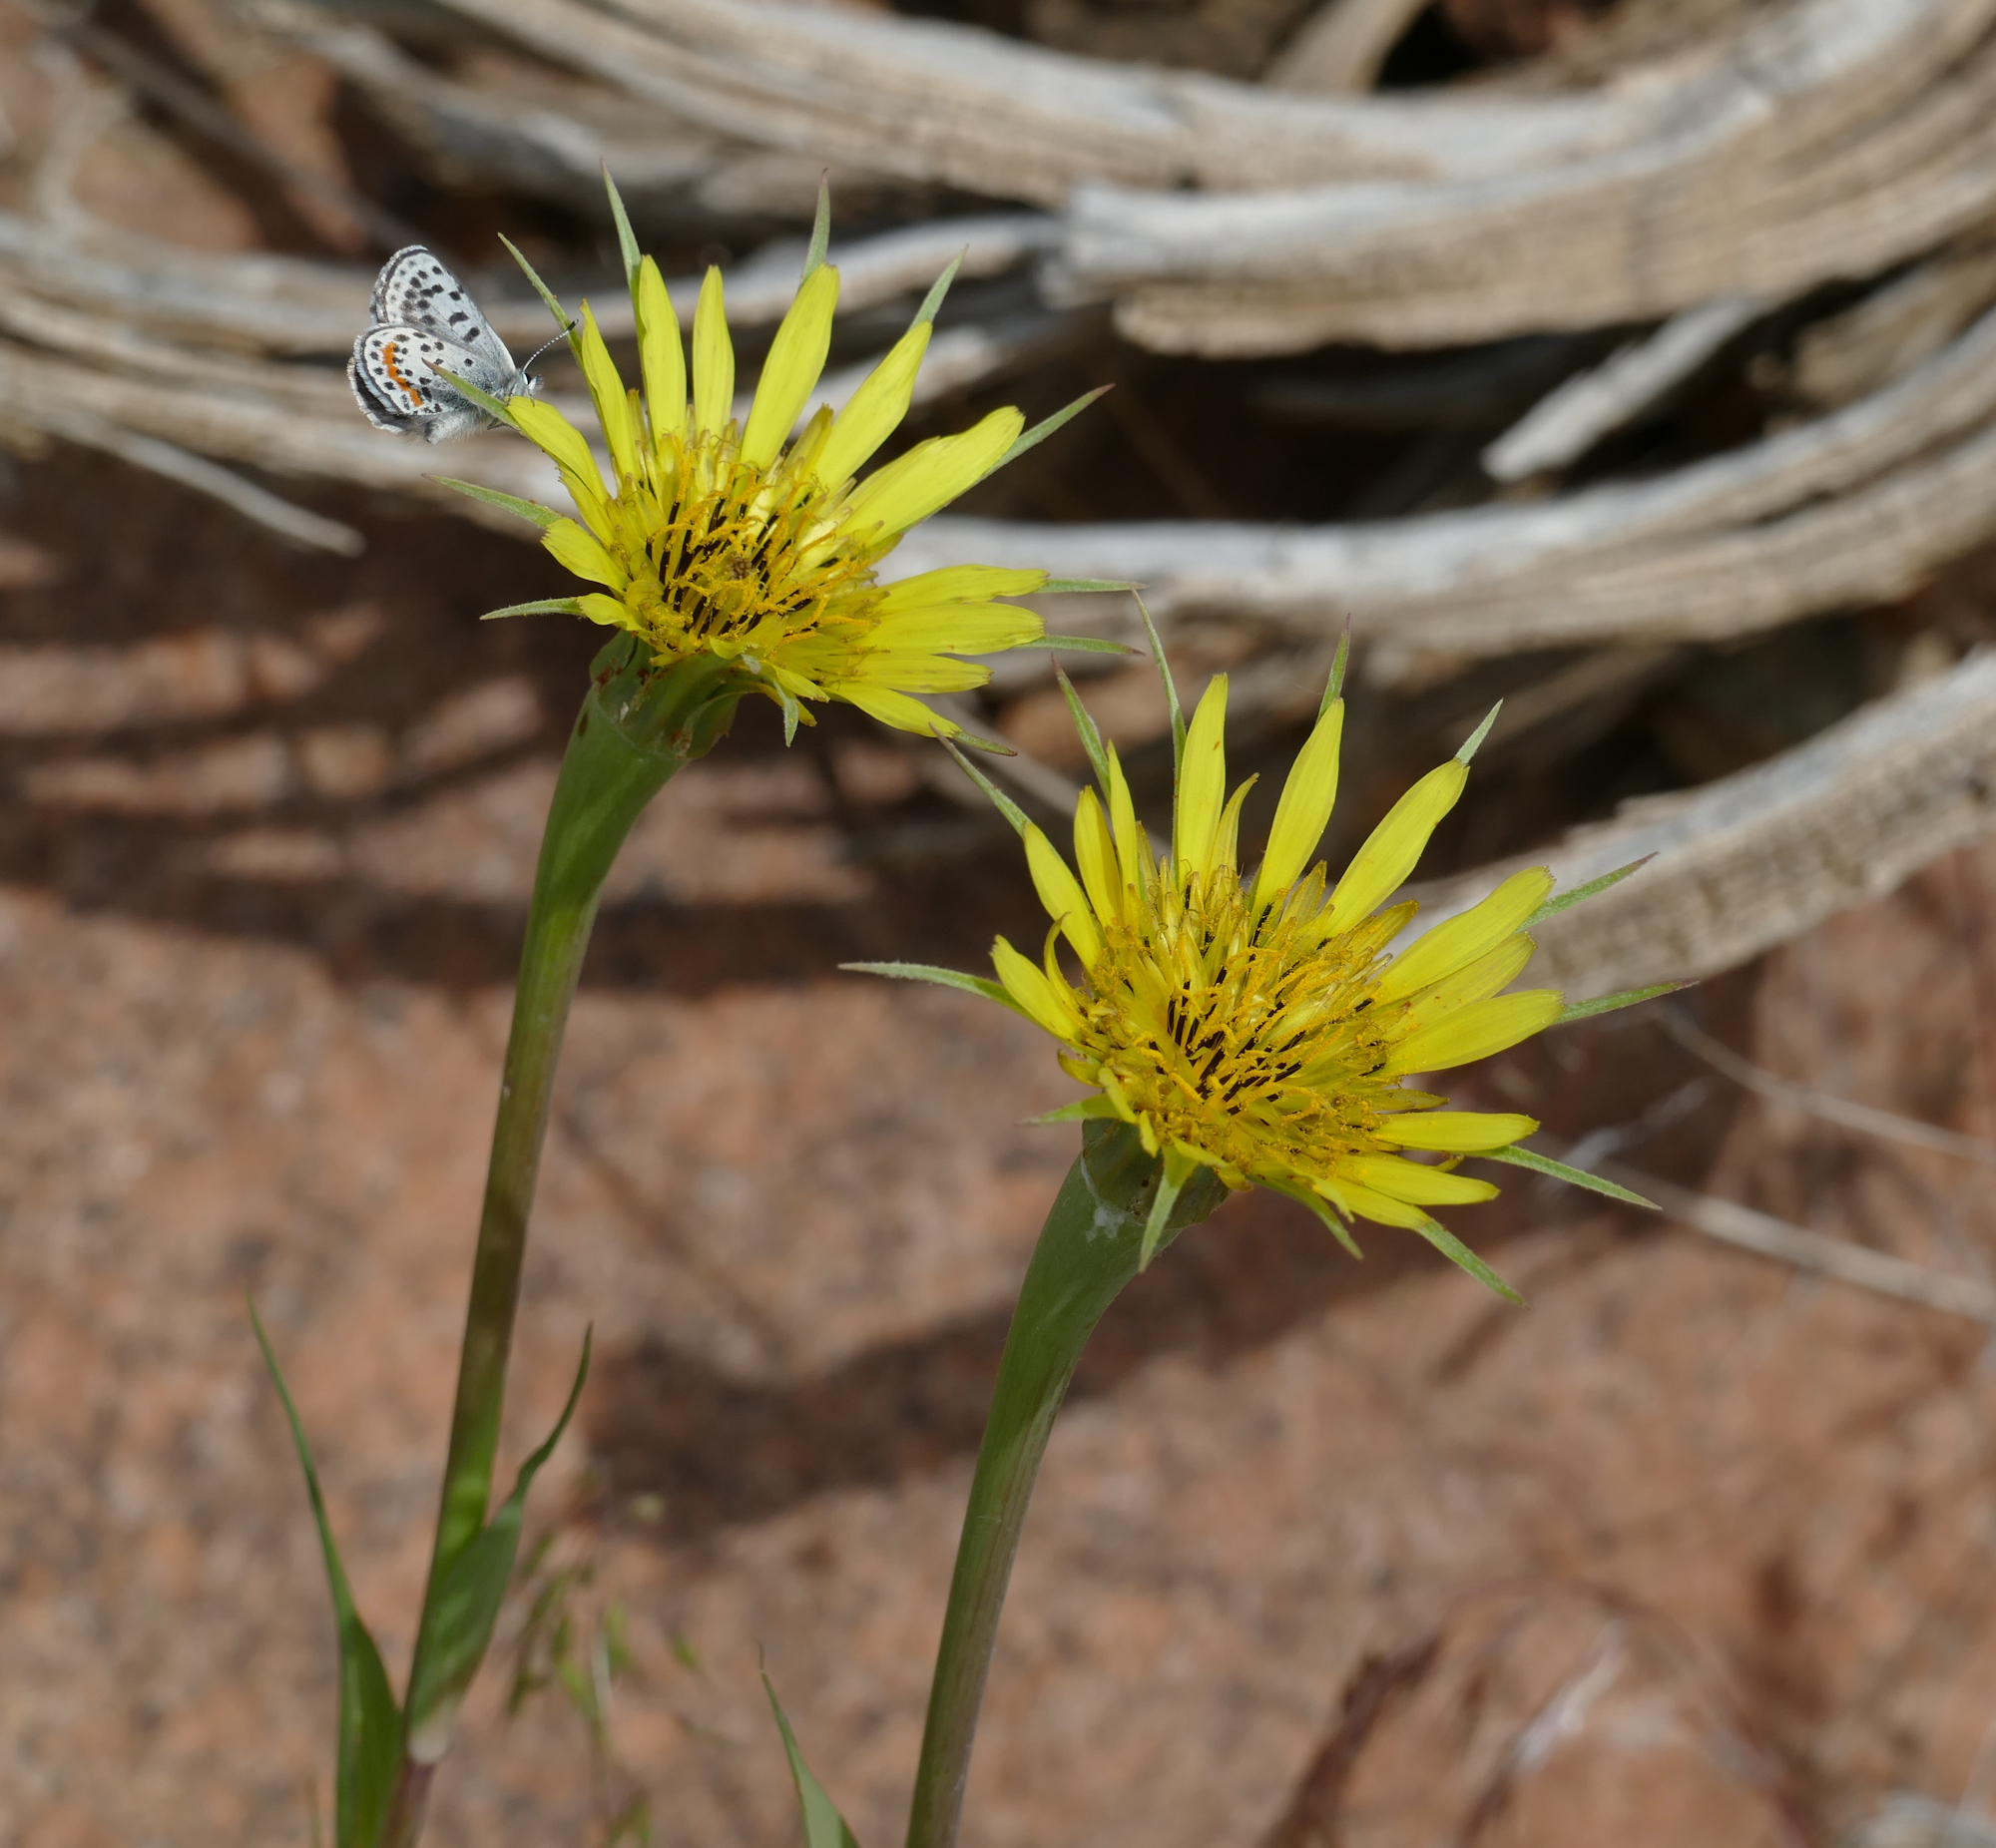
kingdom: Plantae
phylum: Tracheophyta
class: Magnoliopsida
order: Asterales
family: Asteraceae
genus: Tragopogon
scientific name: Tragopogon dubius
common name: Yellow salsify
